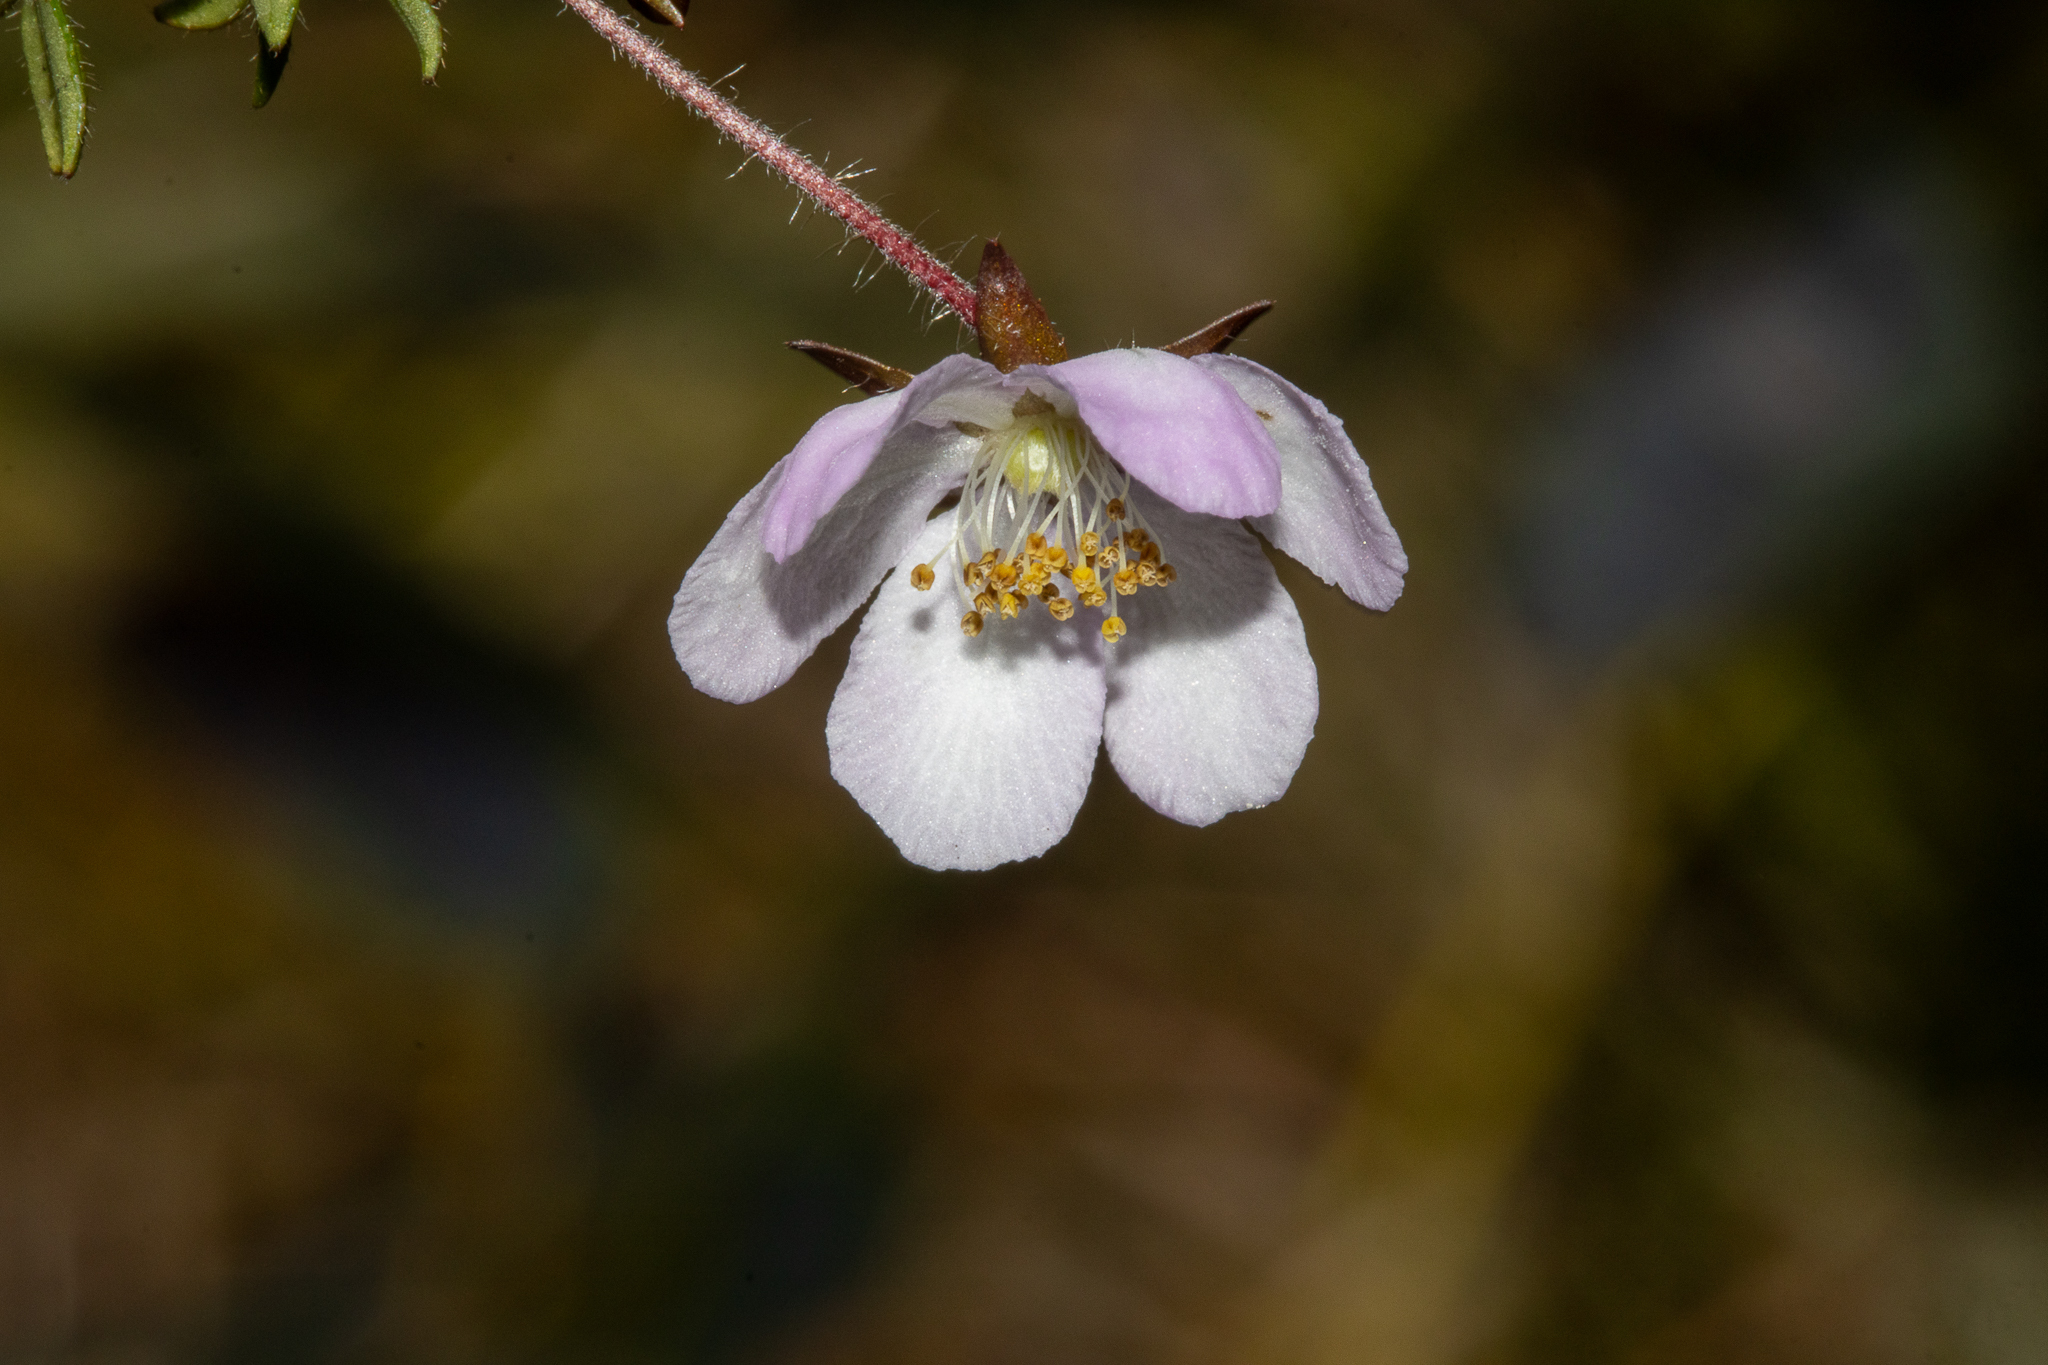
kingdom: Plantae
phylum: Tracheophyta
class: Magnoliopsida
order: Oxalidales
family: Cunoniaceae
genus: Bauera
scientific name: Bauera rubioides
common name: River-rose
